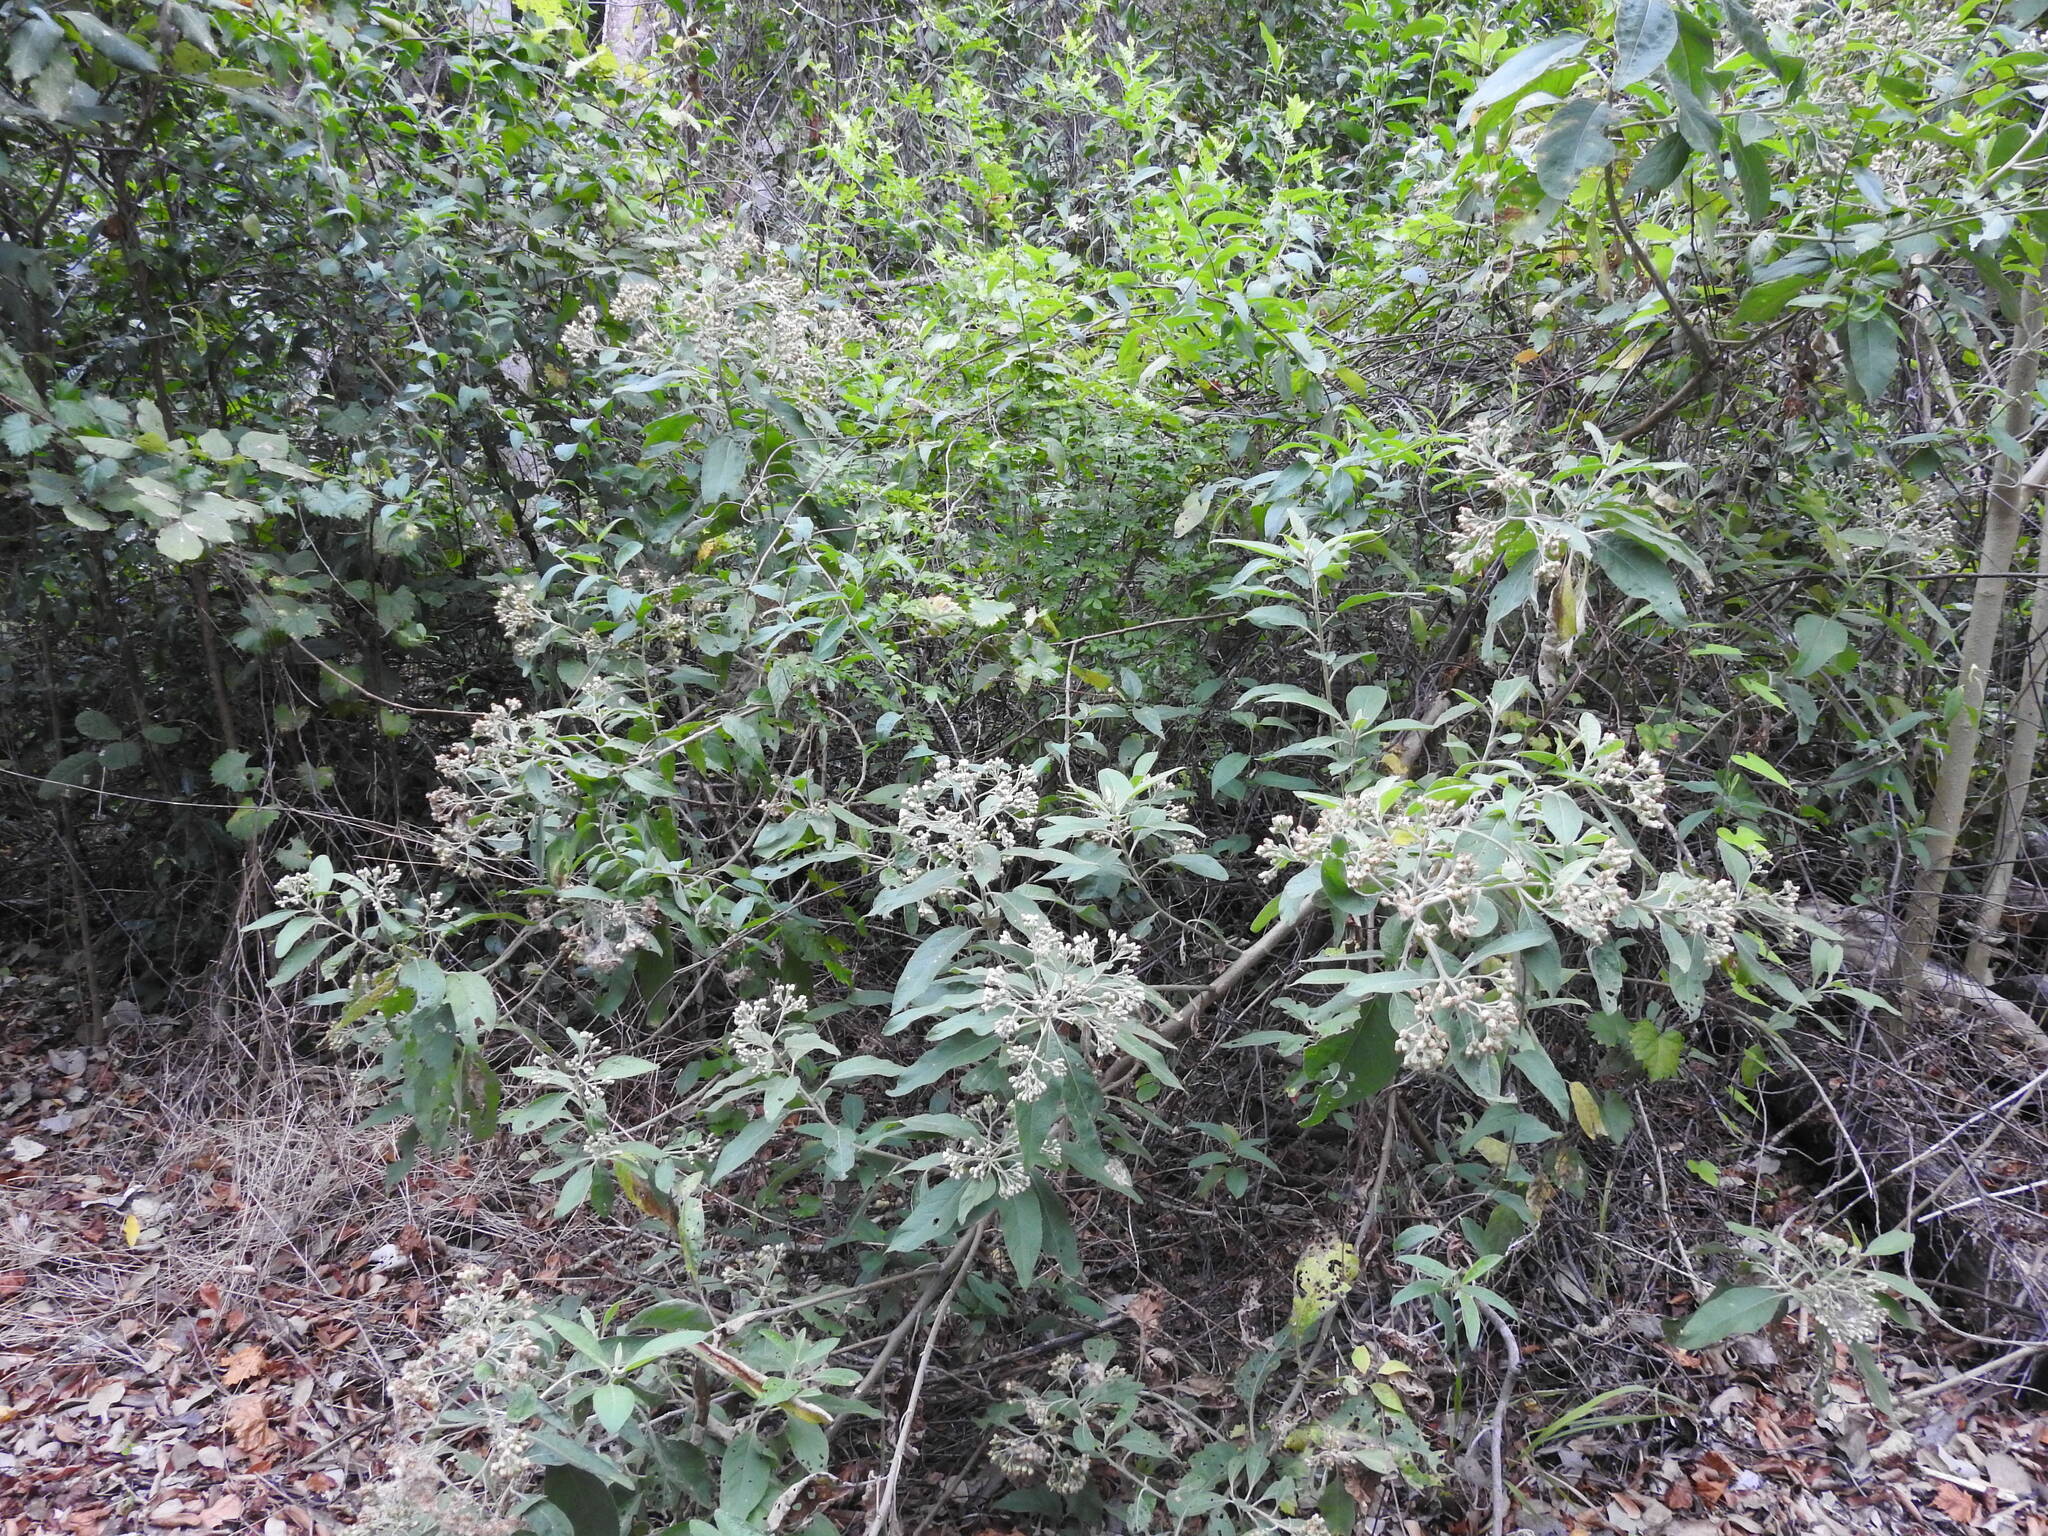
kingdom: Plantae
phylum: Tracheophyta
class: Magnoliopsida
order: Asterales
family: Asteraceae
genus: Pluchea
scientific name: Pluchea carolinensis
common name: Marsh fleabane
